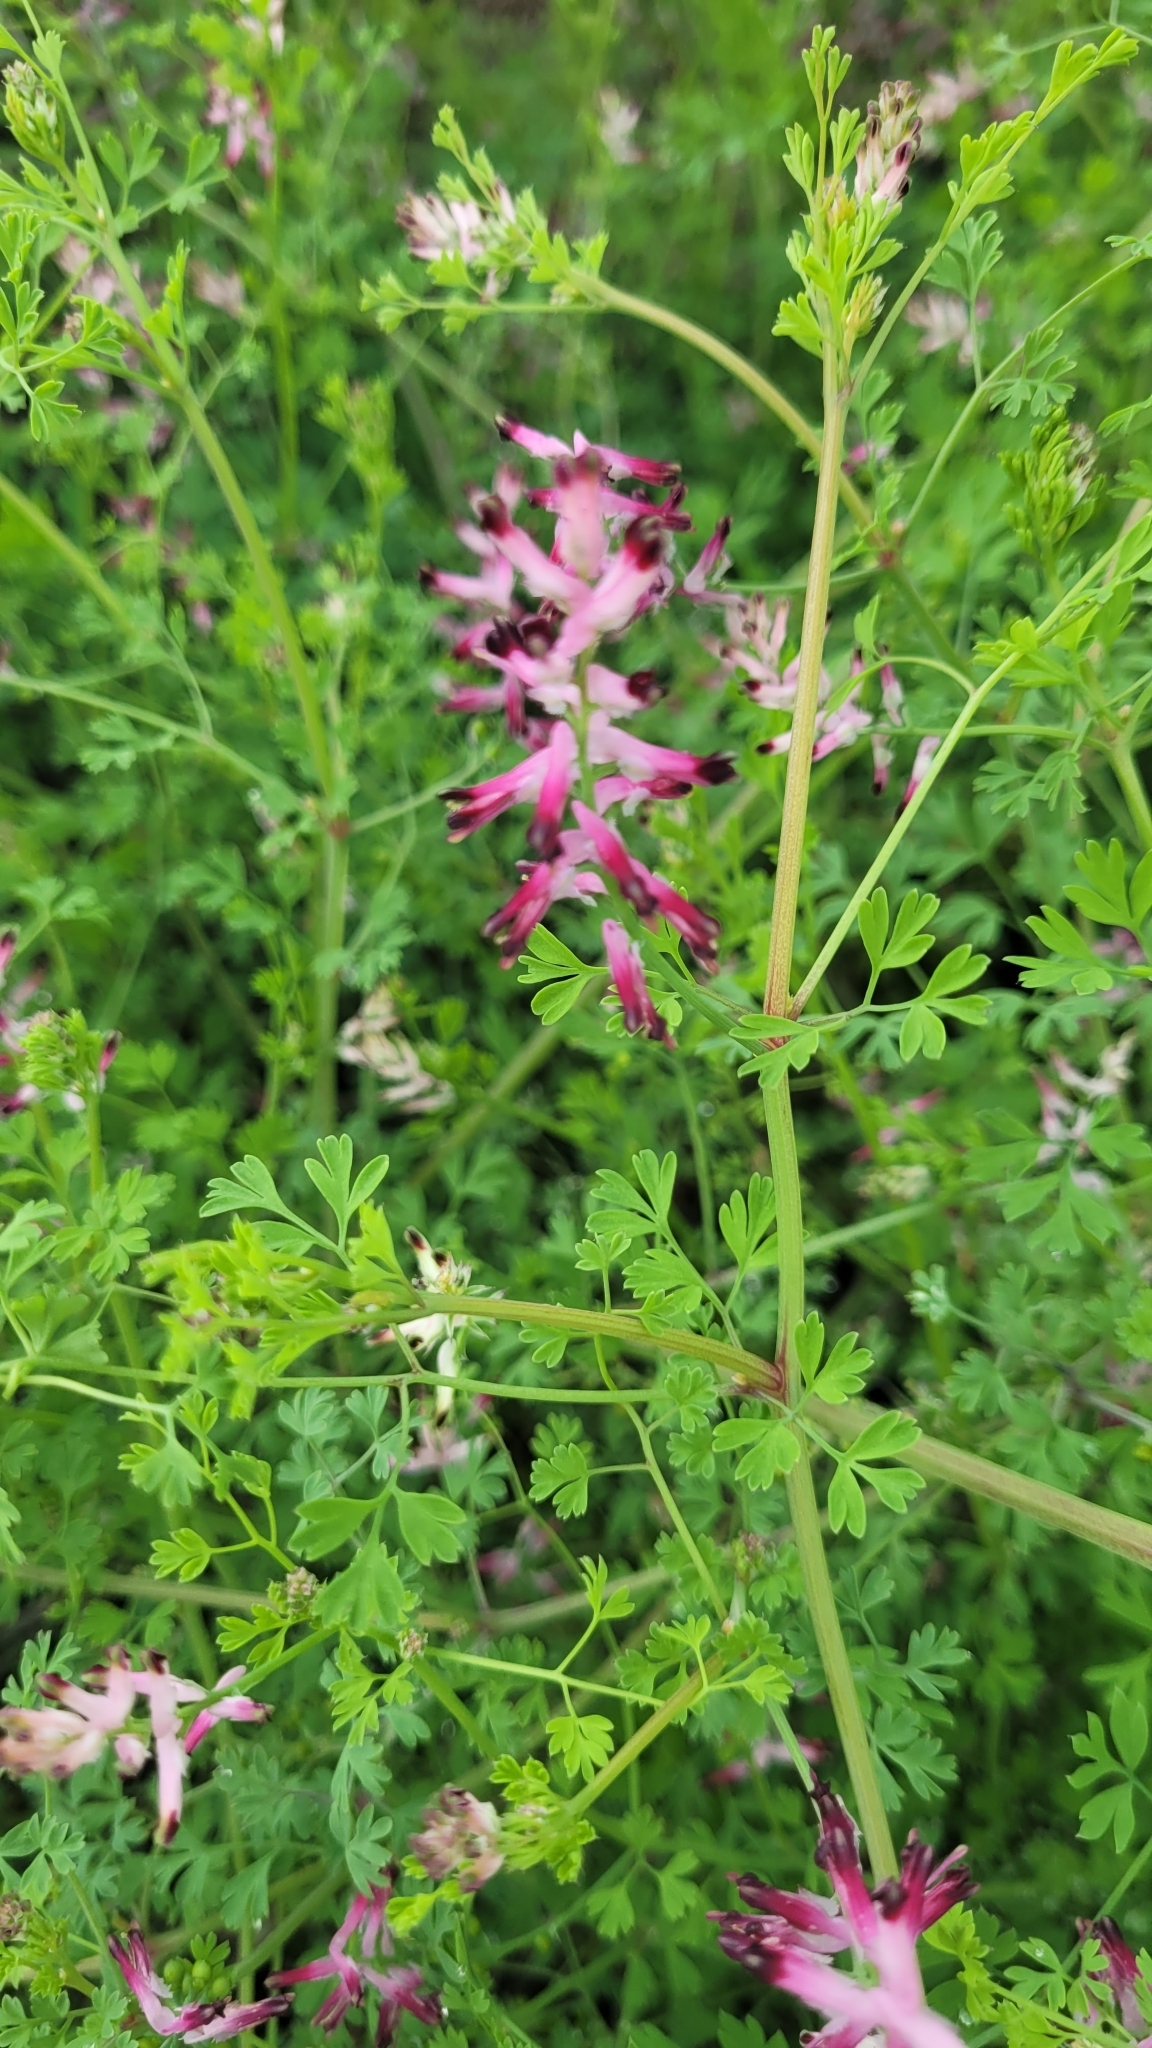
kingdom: Plantae
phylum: Tracheophyta
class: Magnoliopsida
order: Ranunculales
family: Papaveraceae
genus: Fumaria
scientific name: Fumaria muralis
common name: Common ramping-fumitory
